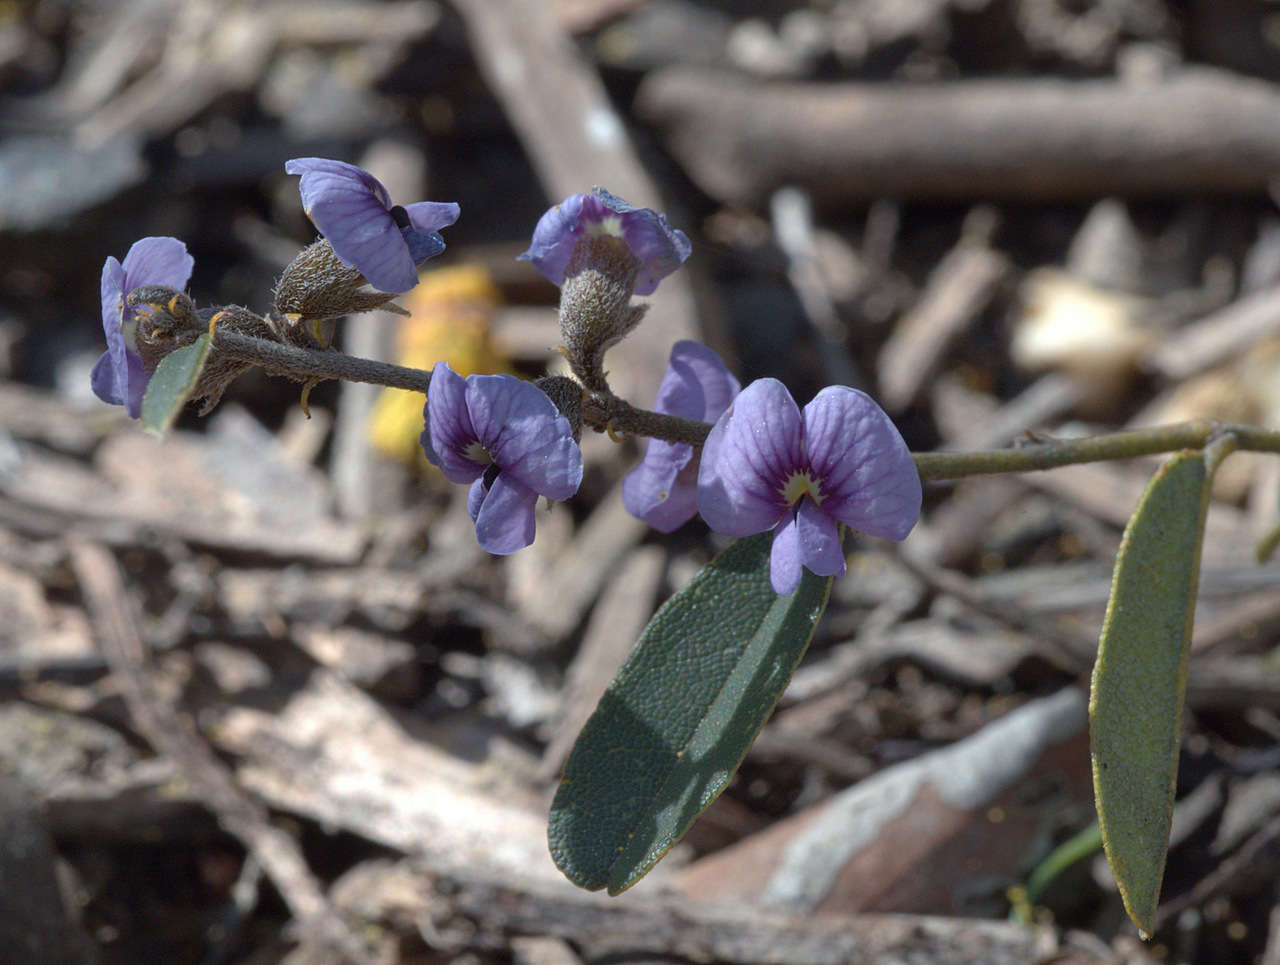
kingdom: Plantae
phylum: Tracheophyta
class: Magnoliopsida
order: Fabales
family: Fabaceae
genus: Hovea
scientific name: Hovea heterophylla
